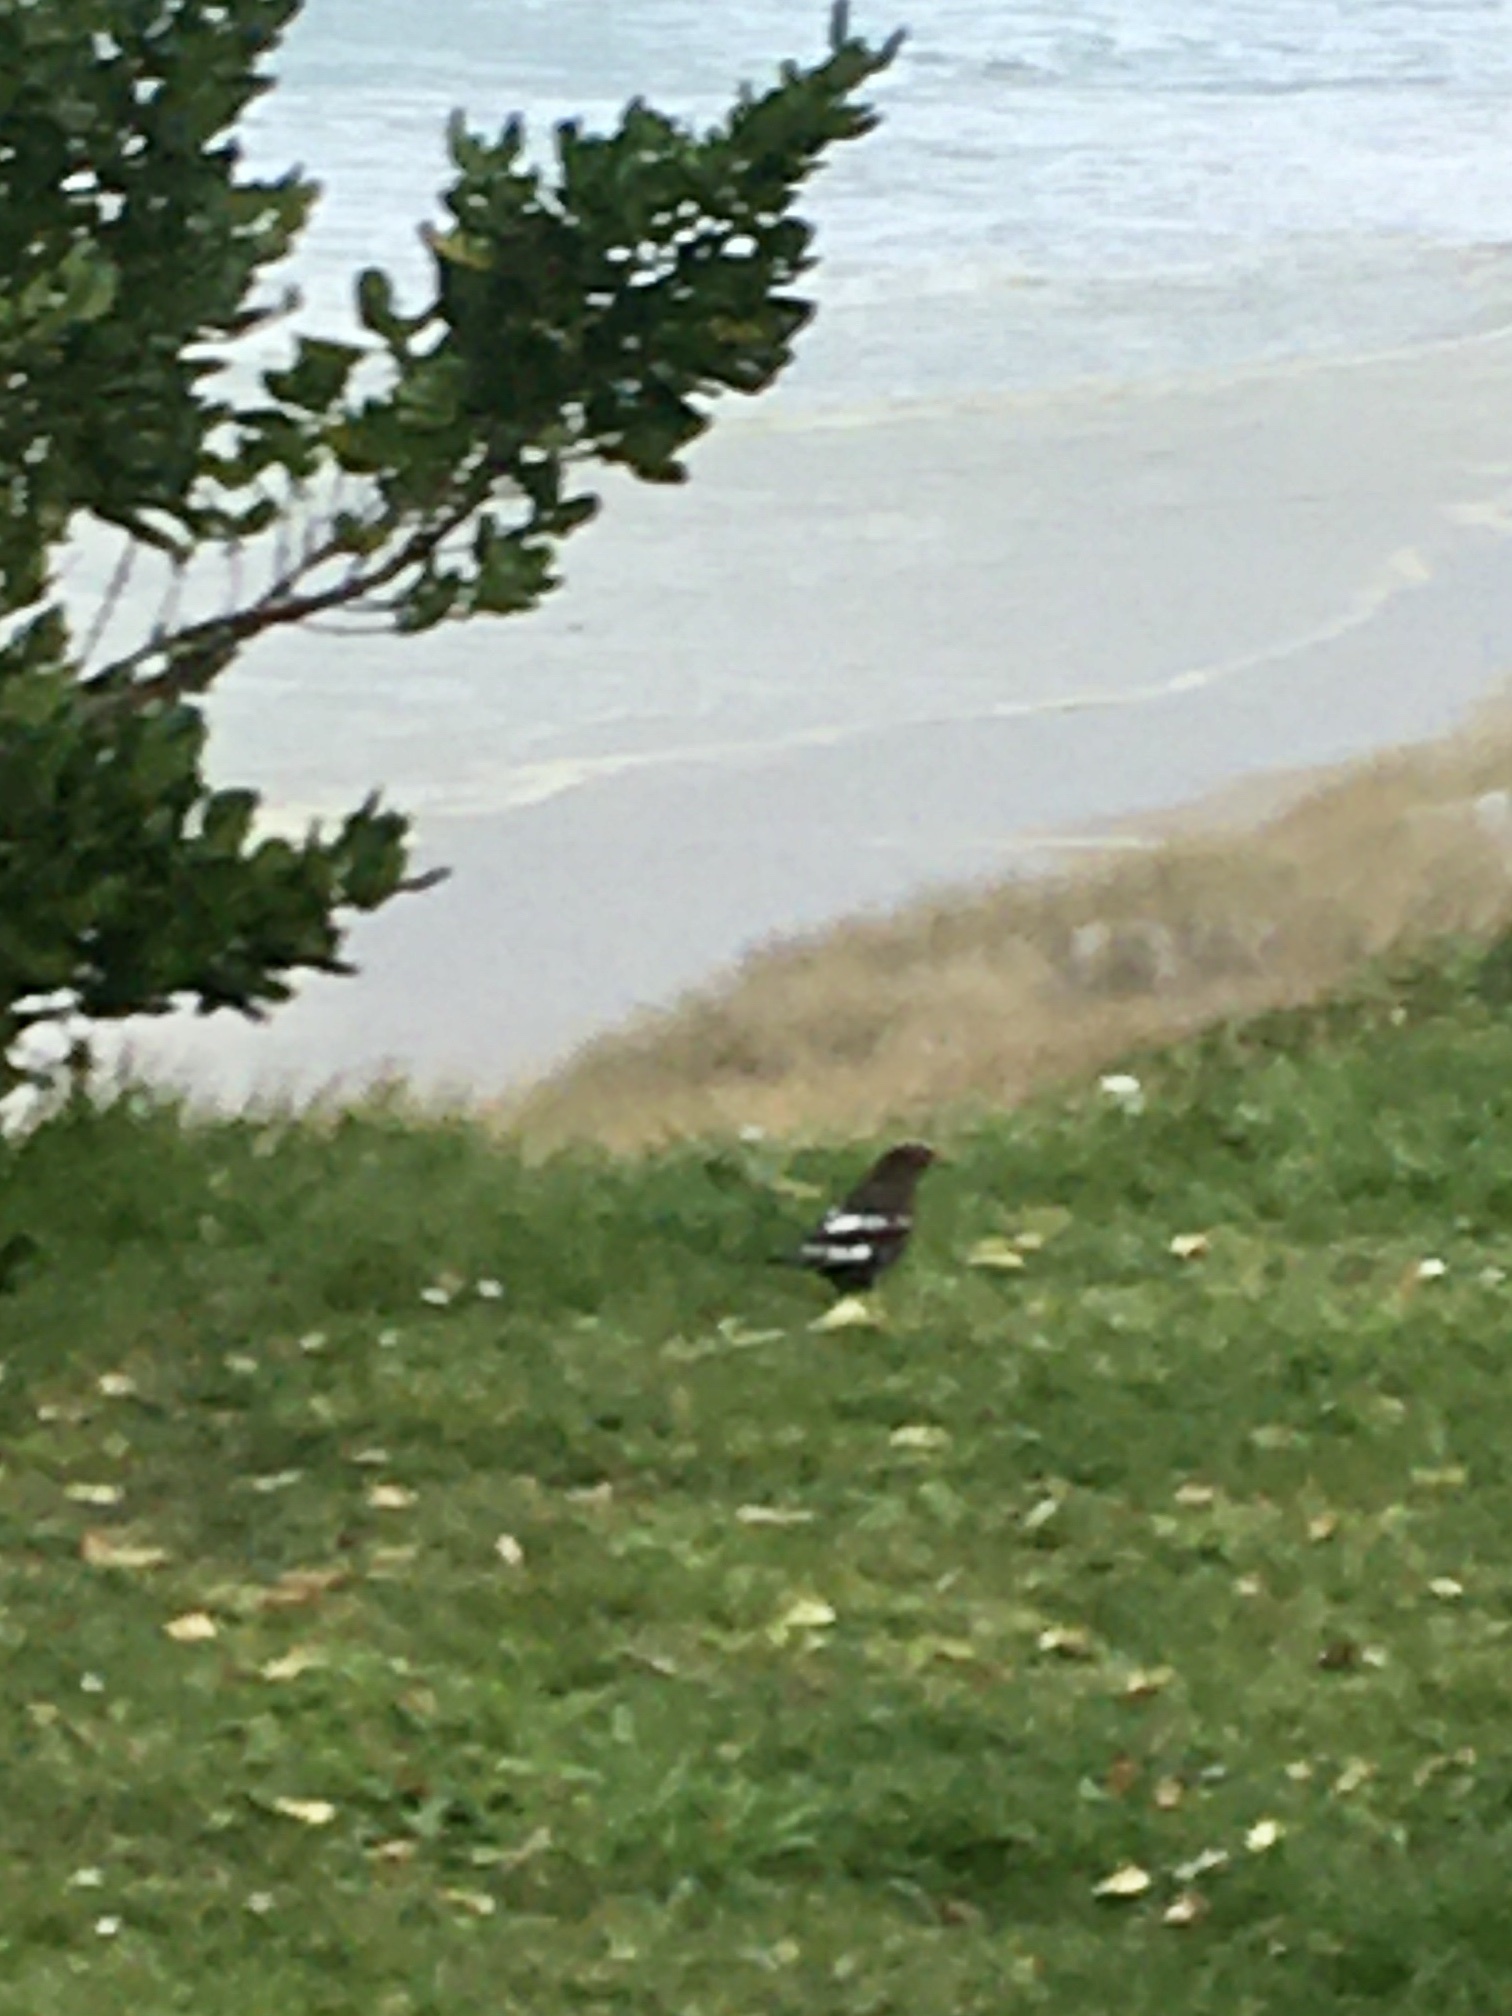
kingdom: Animalia
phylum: Chordata
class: Aves
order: Passeriformes
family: Turdidae
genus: Turdus
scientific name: Turdus merula
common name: Common blackbird
